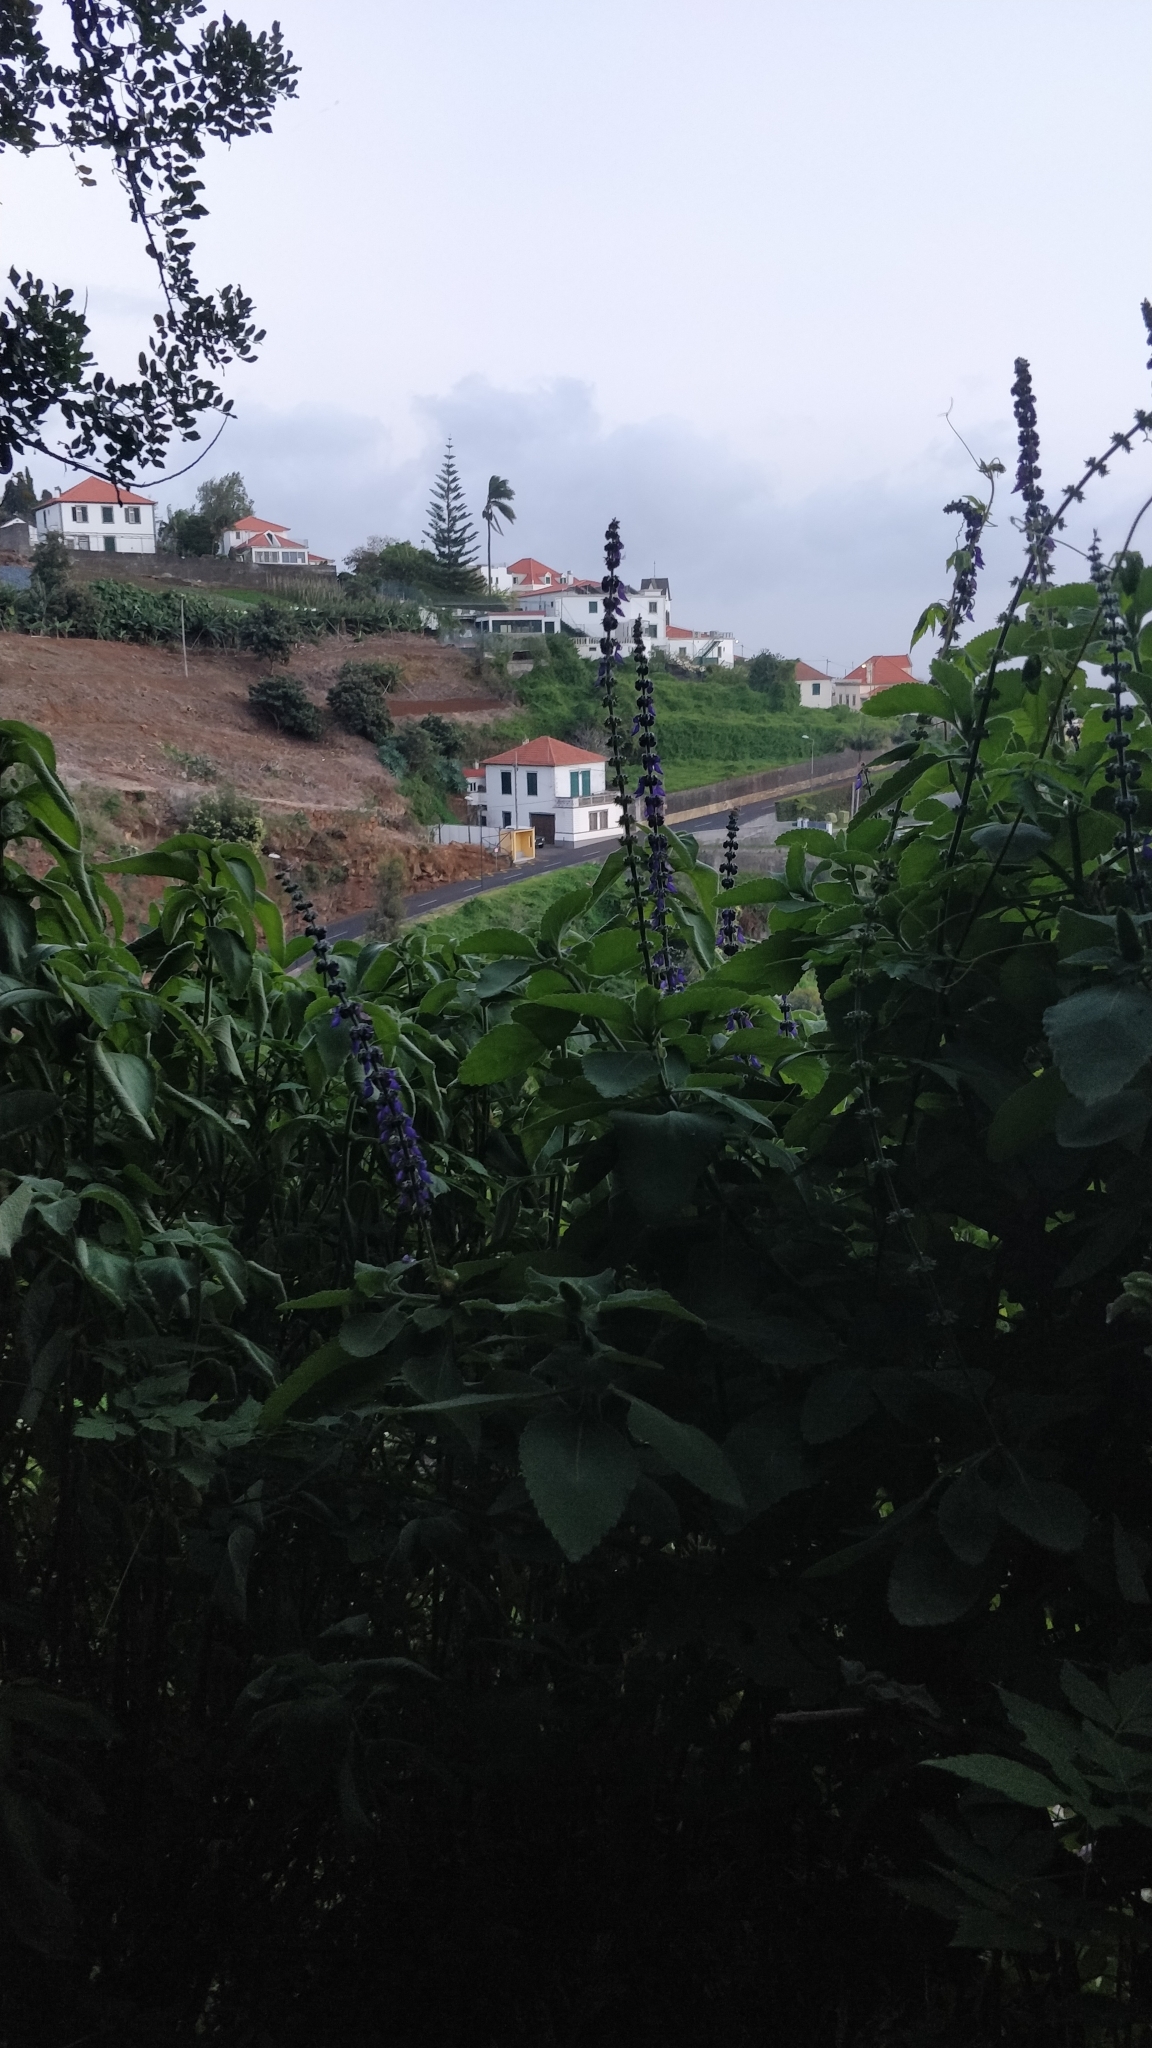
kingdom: Plantae
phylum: Tracheophyta
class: Magnoliopsida
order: Lamiales
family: Lamiaceae
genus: Coleus
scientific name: Coleus barbatus
